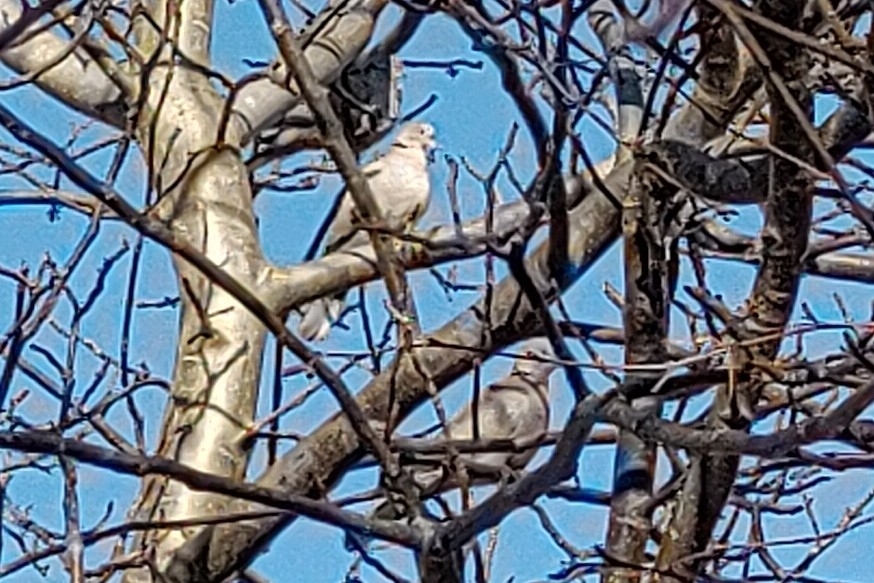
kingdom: Animalia
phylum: Chordata
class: Aves
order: Columbiformes
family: Columbidae
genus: Streptopelia
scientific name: Streptopelia decaocto
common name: Eurasian collared dove
